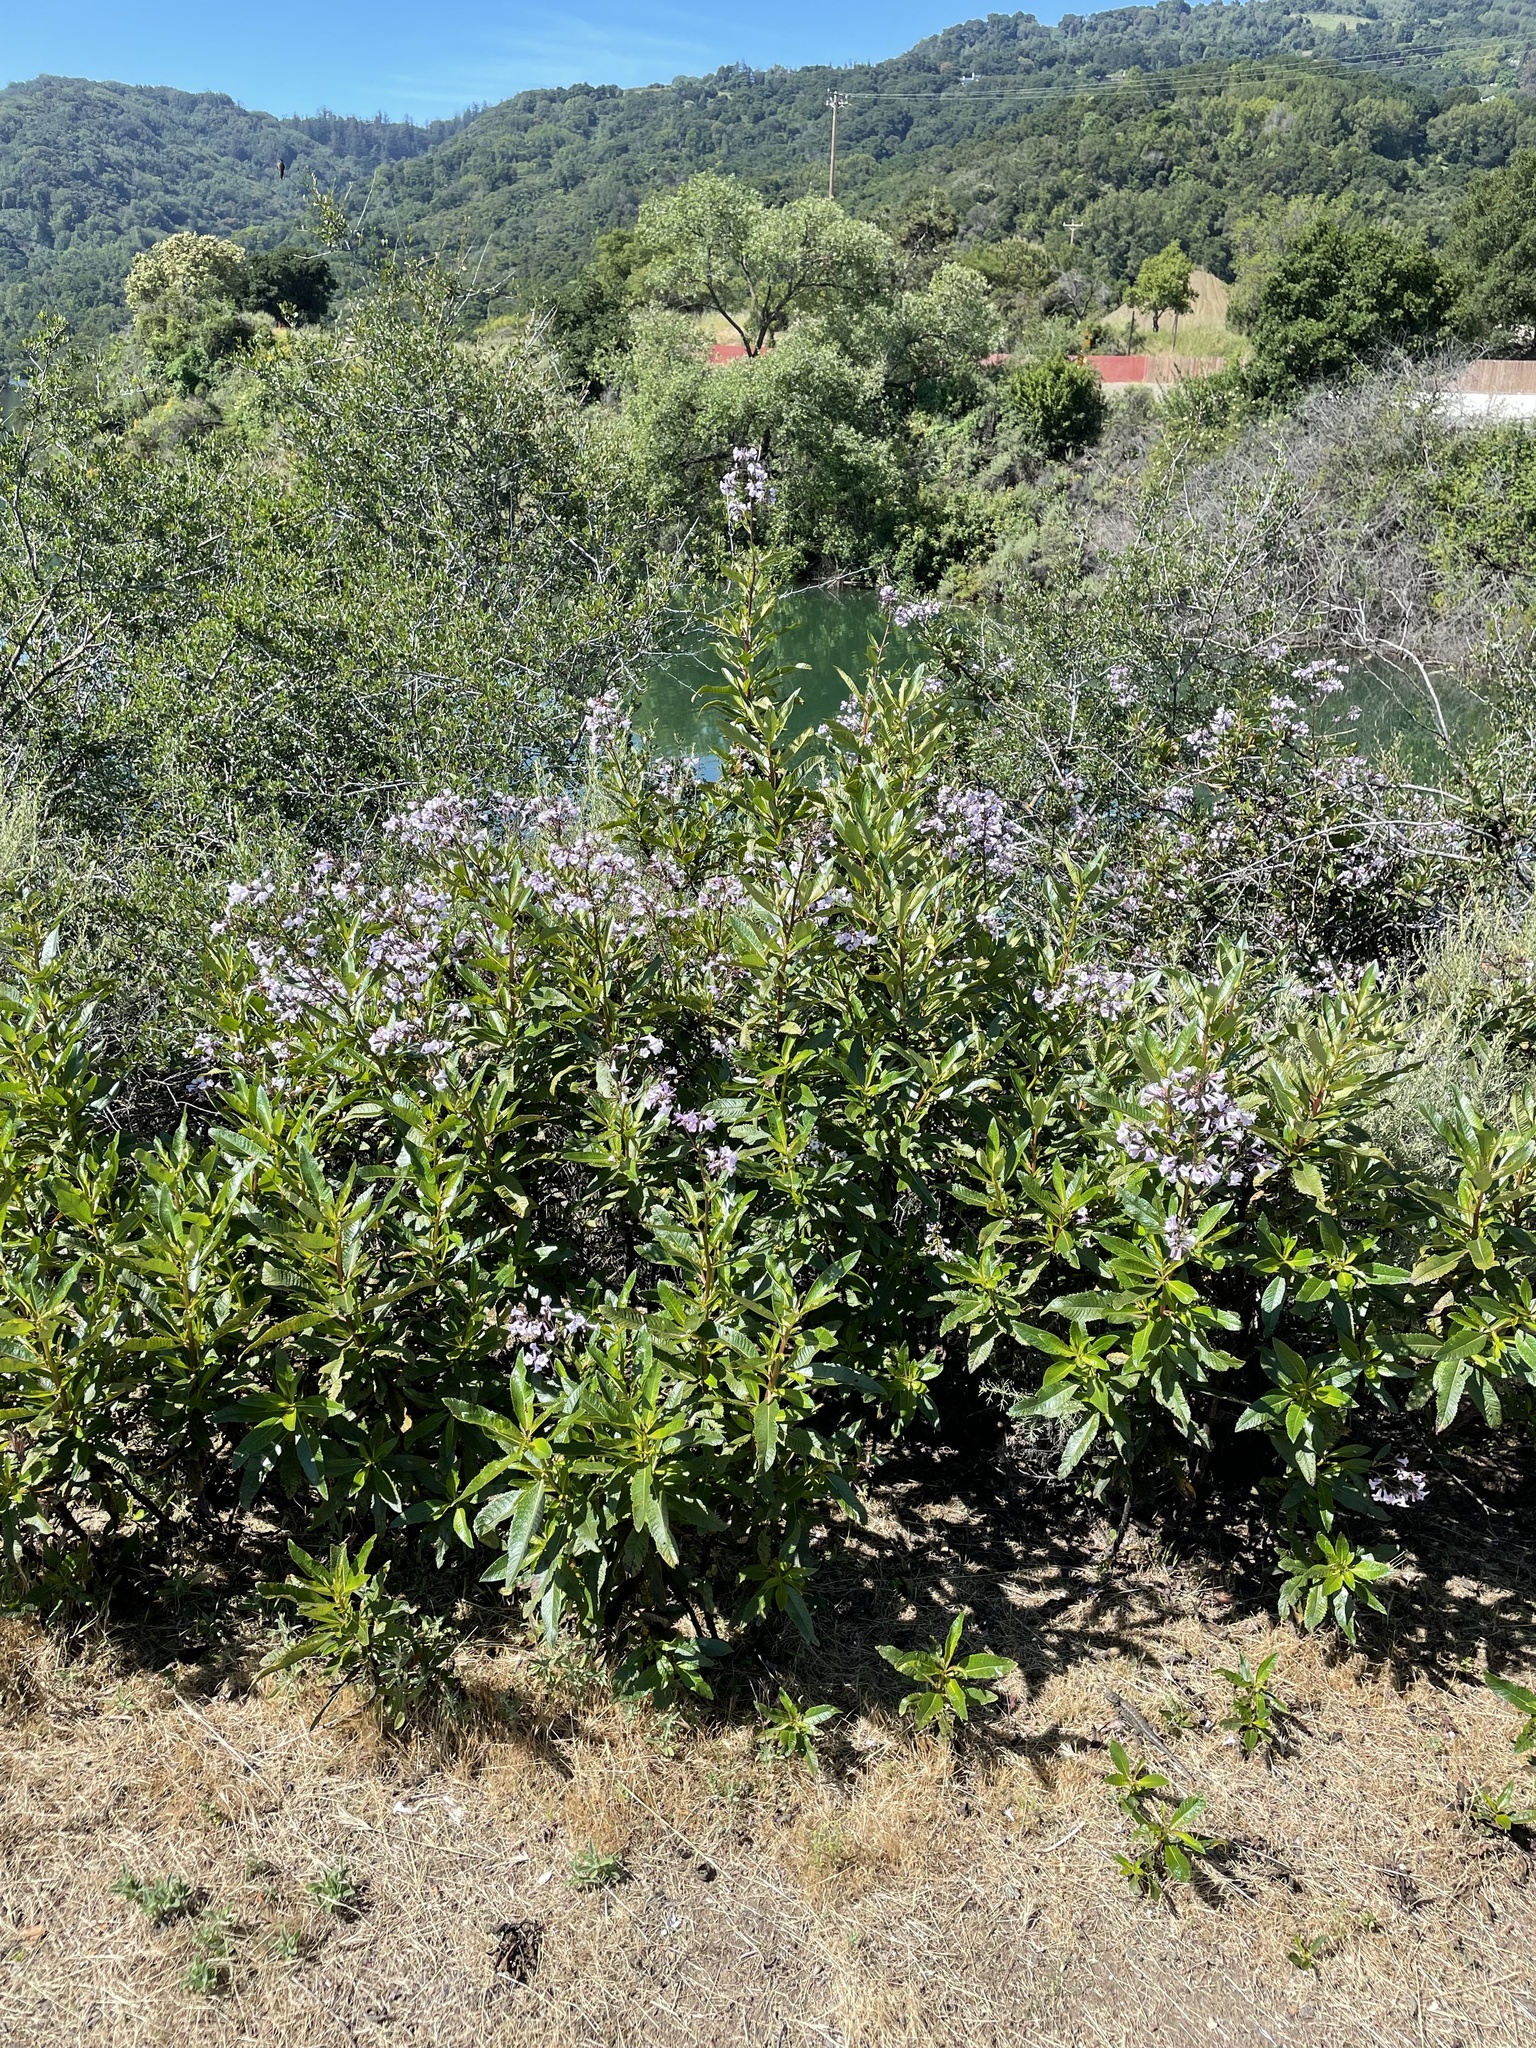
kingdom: Plantae
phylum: Tracheophyta
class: Magnoliopsida
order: Boraginales
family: Namaceae
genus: Eriodictyon
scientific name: Eriodictyon californicum
